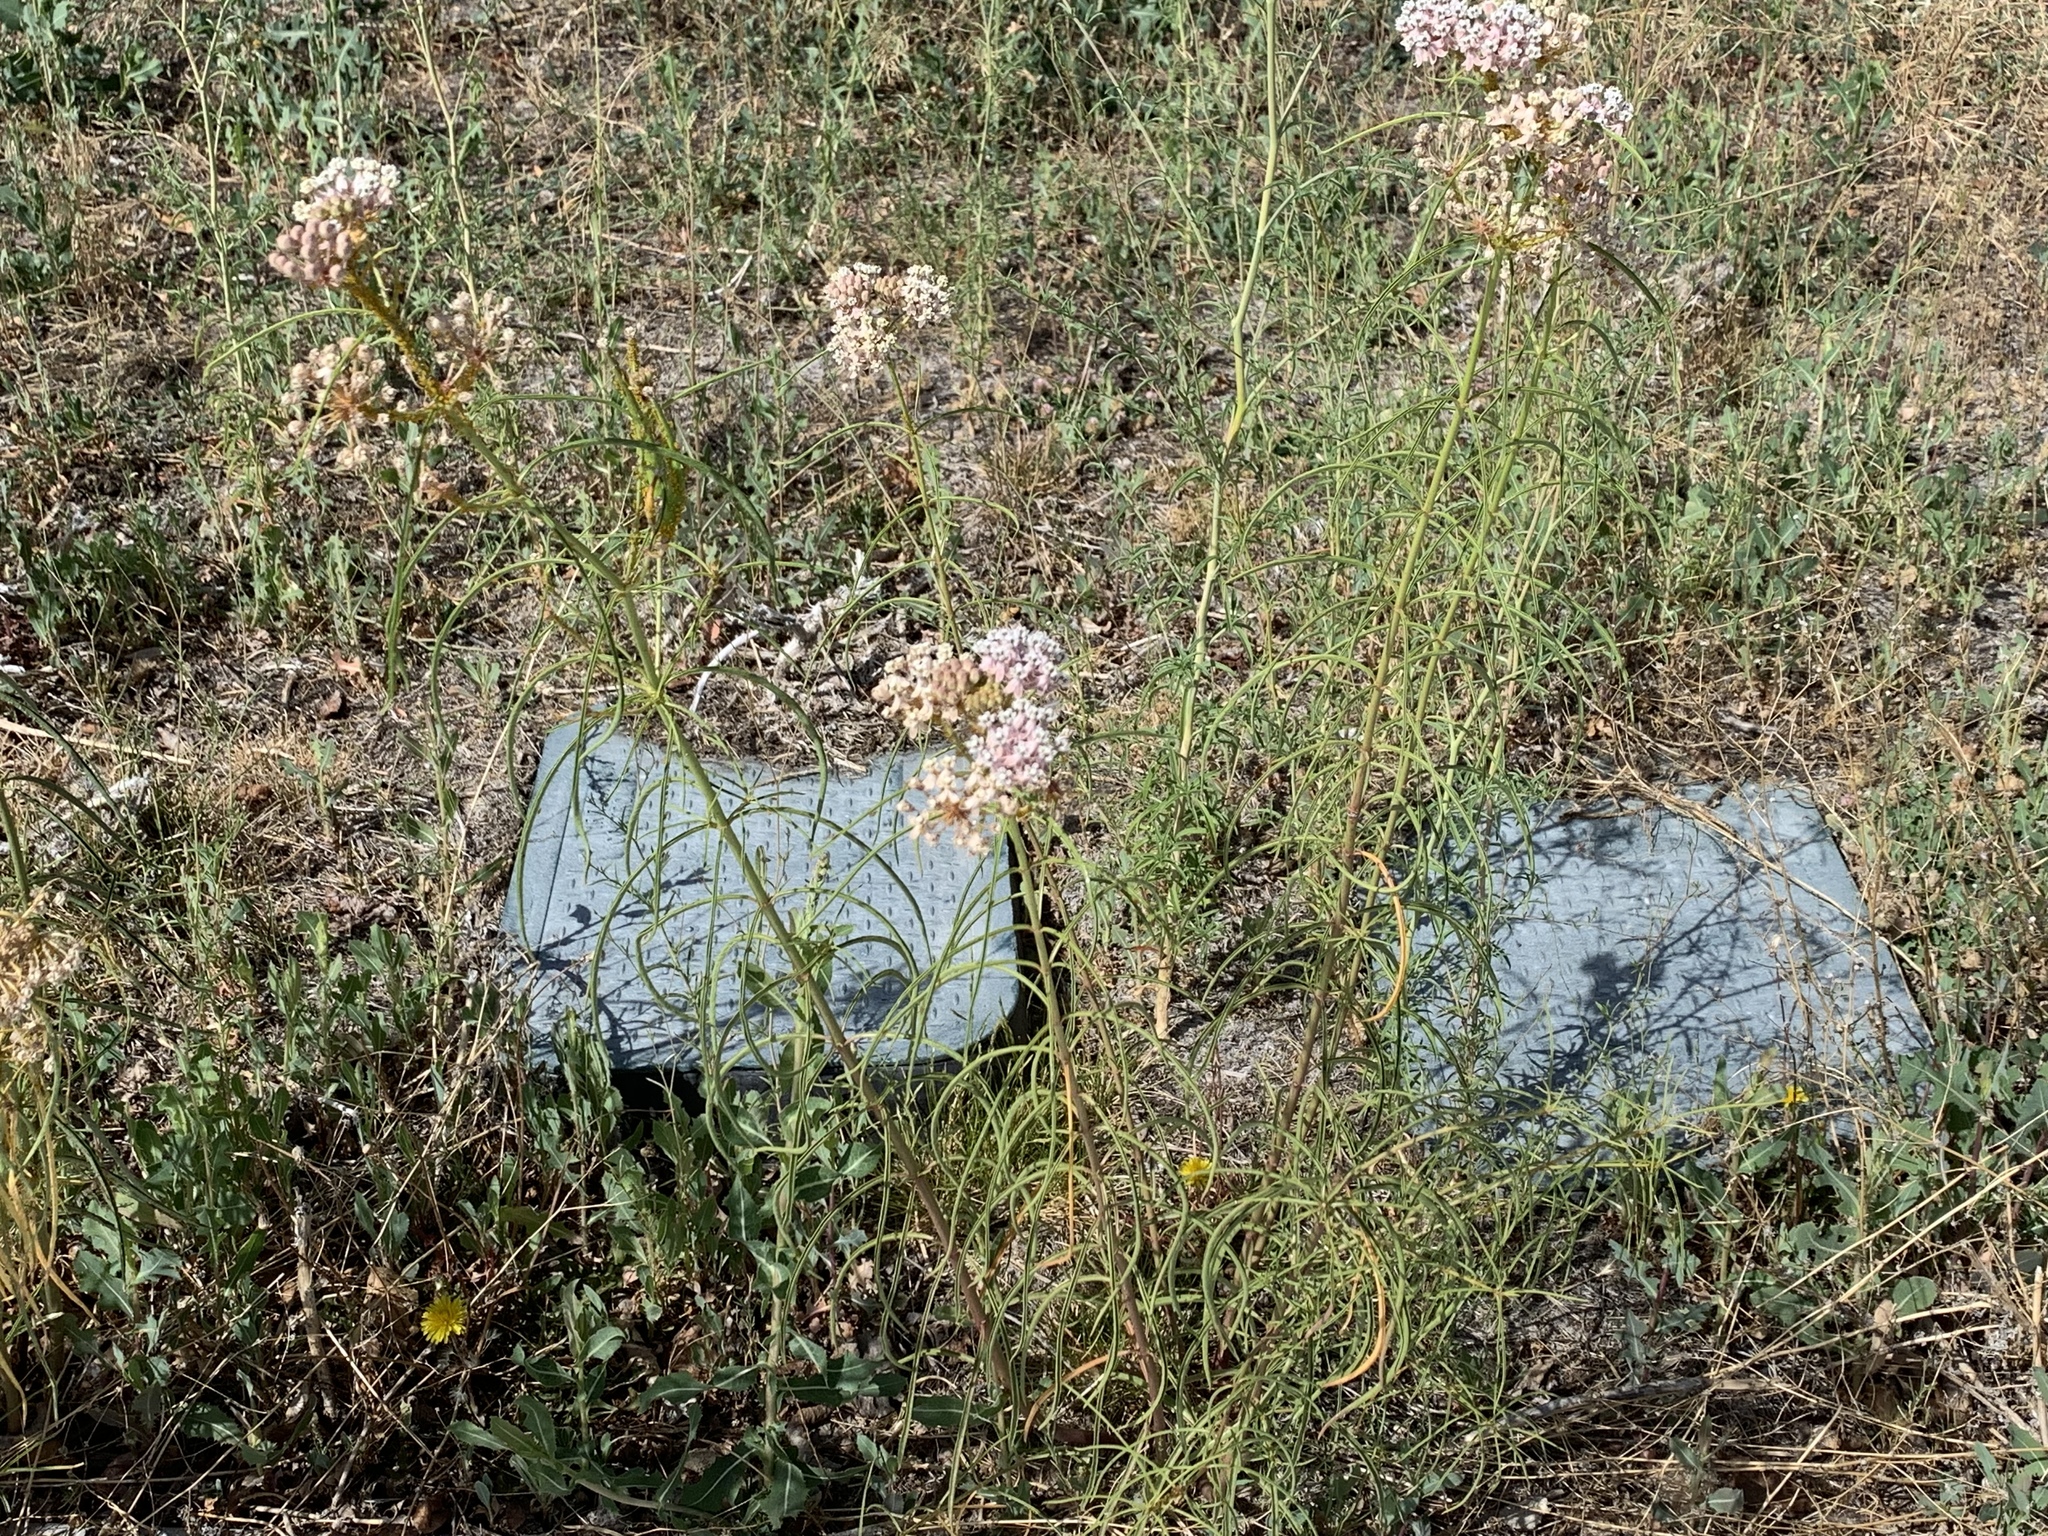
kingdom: Plantae
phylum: Tracheophyta
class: Magnoliopsida
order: Gentianales
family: Apocynaceae
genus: Asclepias
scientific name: Asclepias fascicularis
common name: Mexican milkweed
